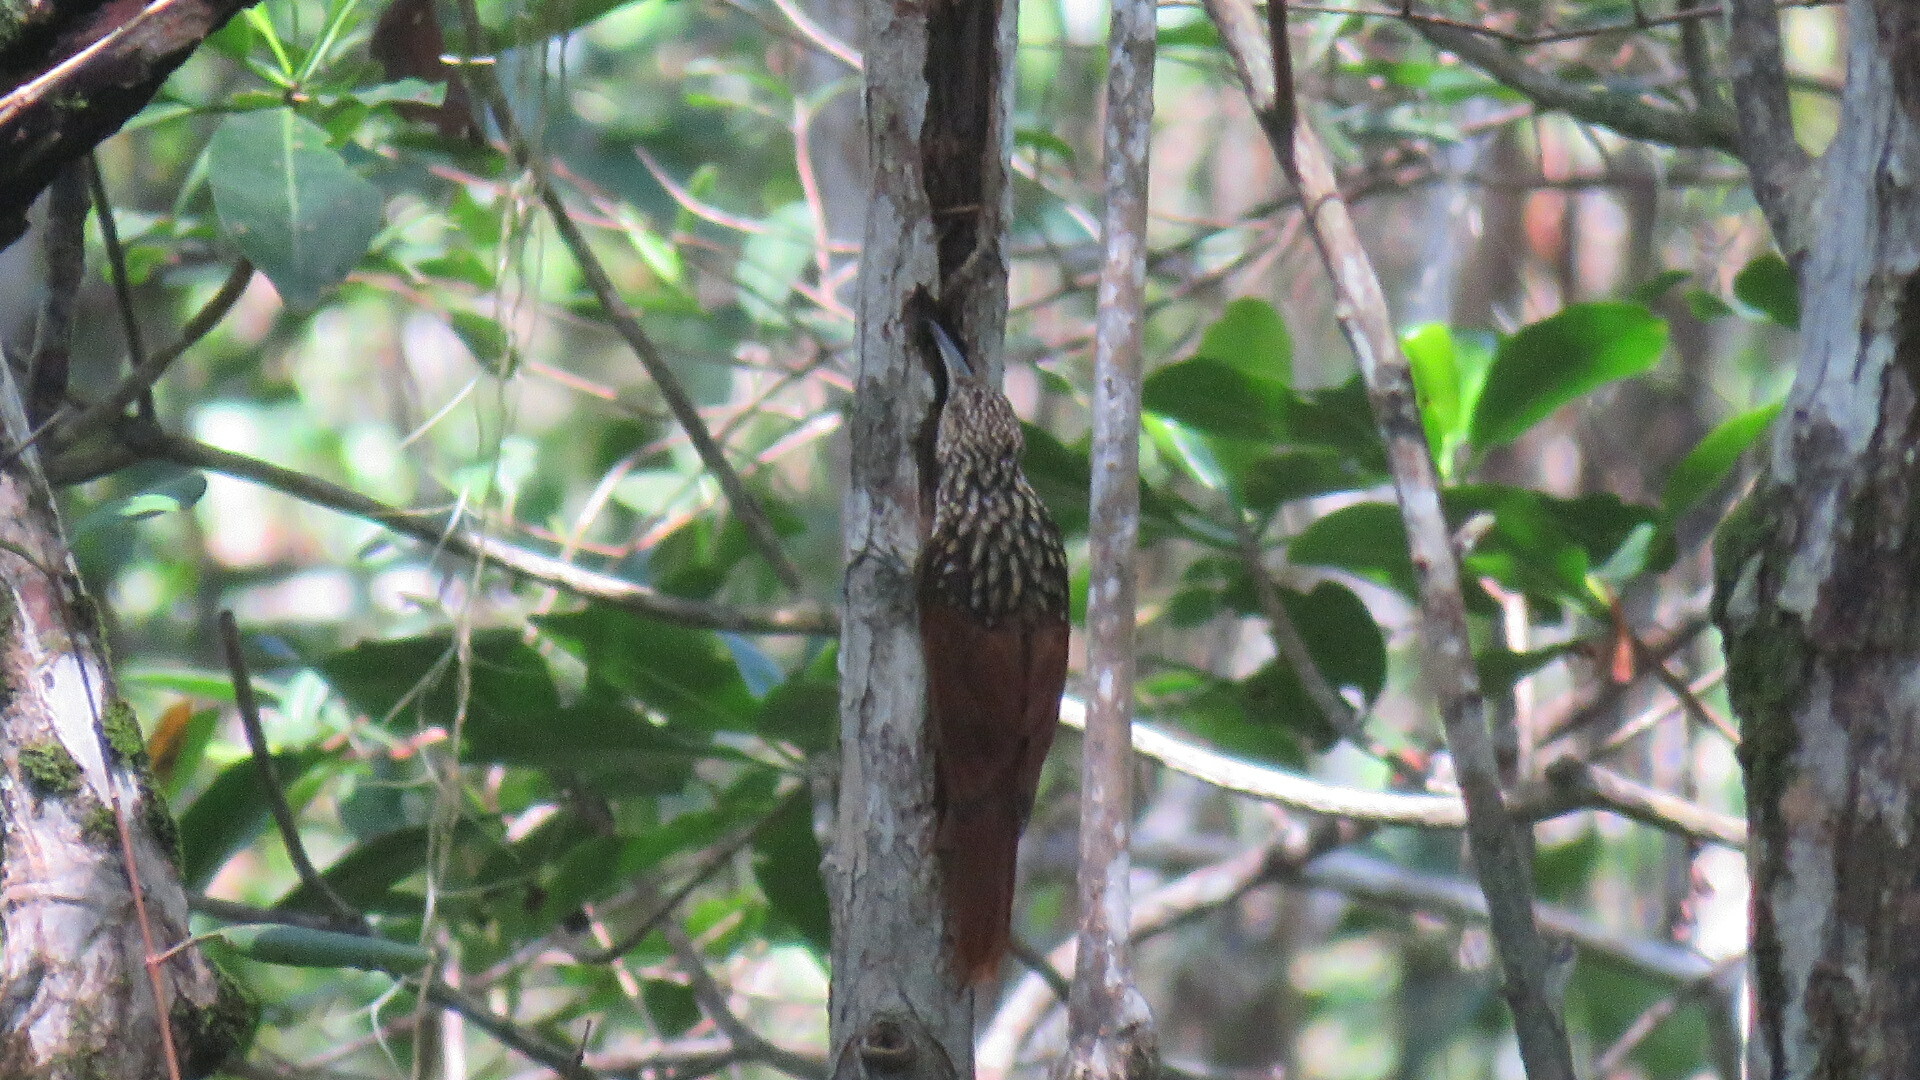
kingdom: Animalia
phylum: Chordata
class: Aves
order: Passeriformes
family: Furnariidae
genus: Xiphorhynchus
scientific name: Xiphorhynchus lachrymosus
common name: Black-striped woodcreeper
